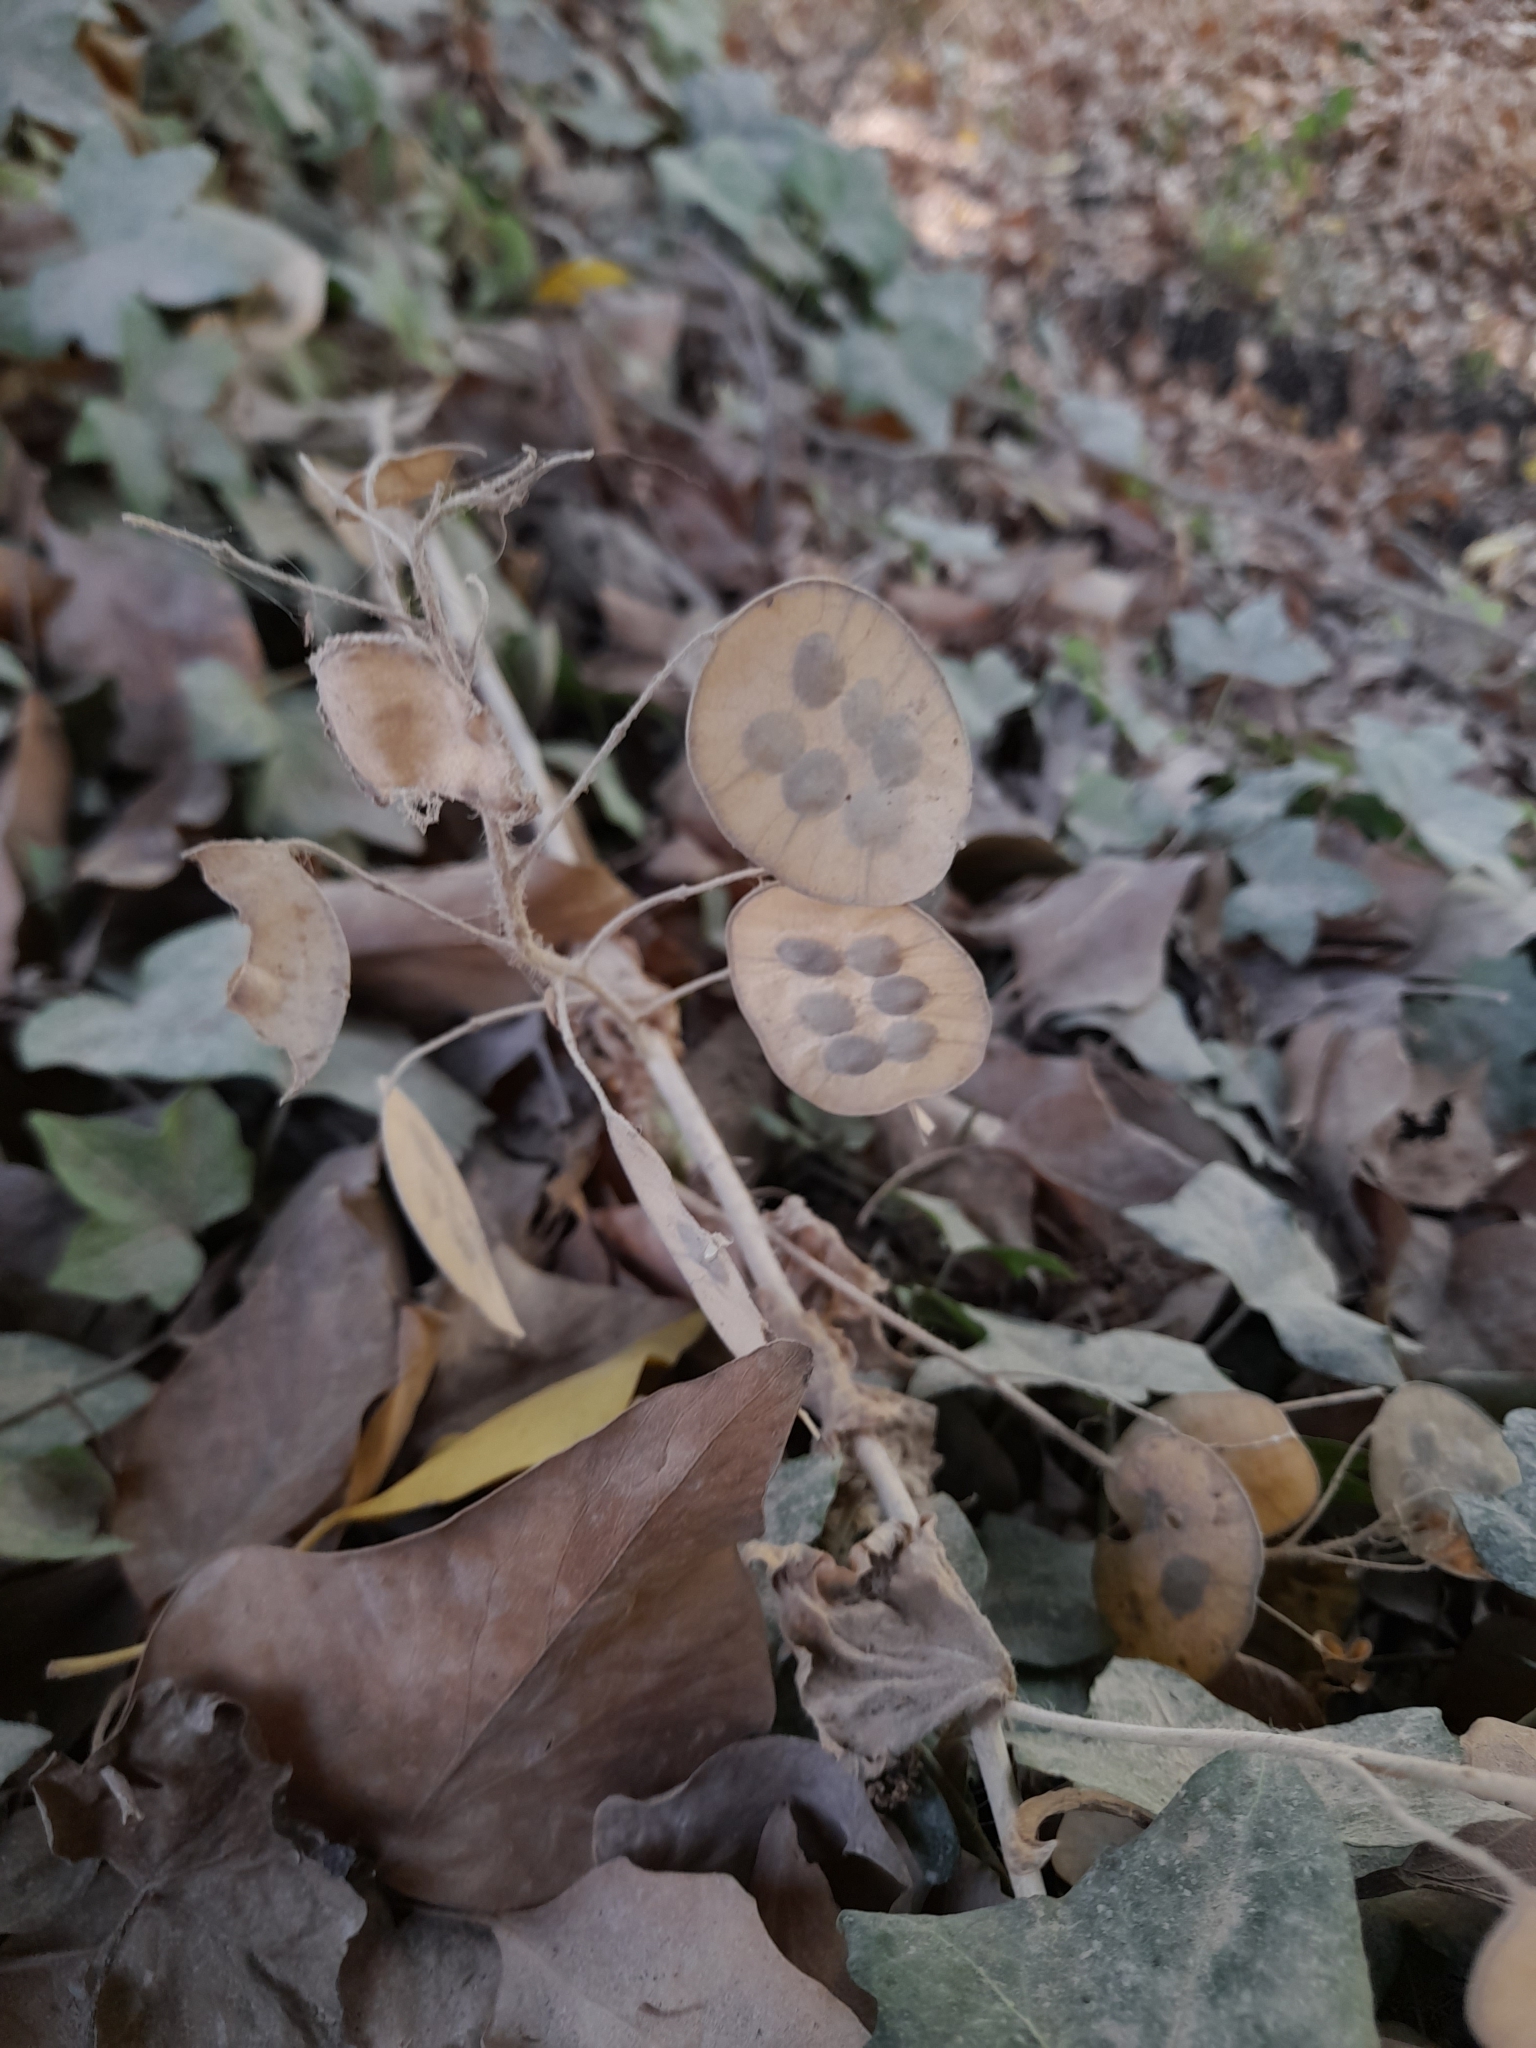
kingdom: Plantae
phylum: Tracheophyta
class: Magnoliopsida
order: Brassicales
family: Brassicaceae
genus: Lunaria
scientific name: Lunaria annua
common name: Honesty
